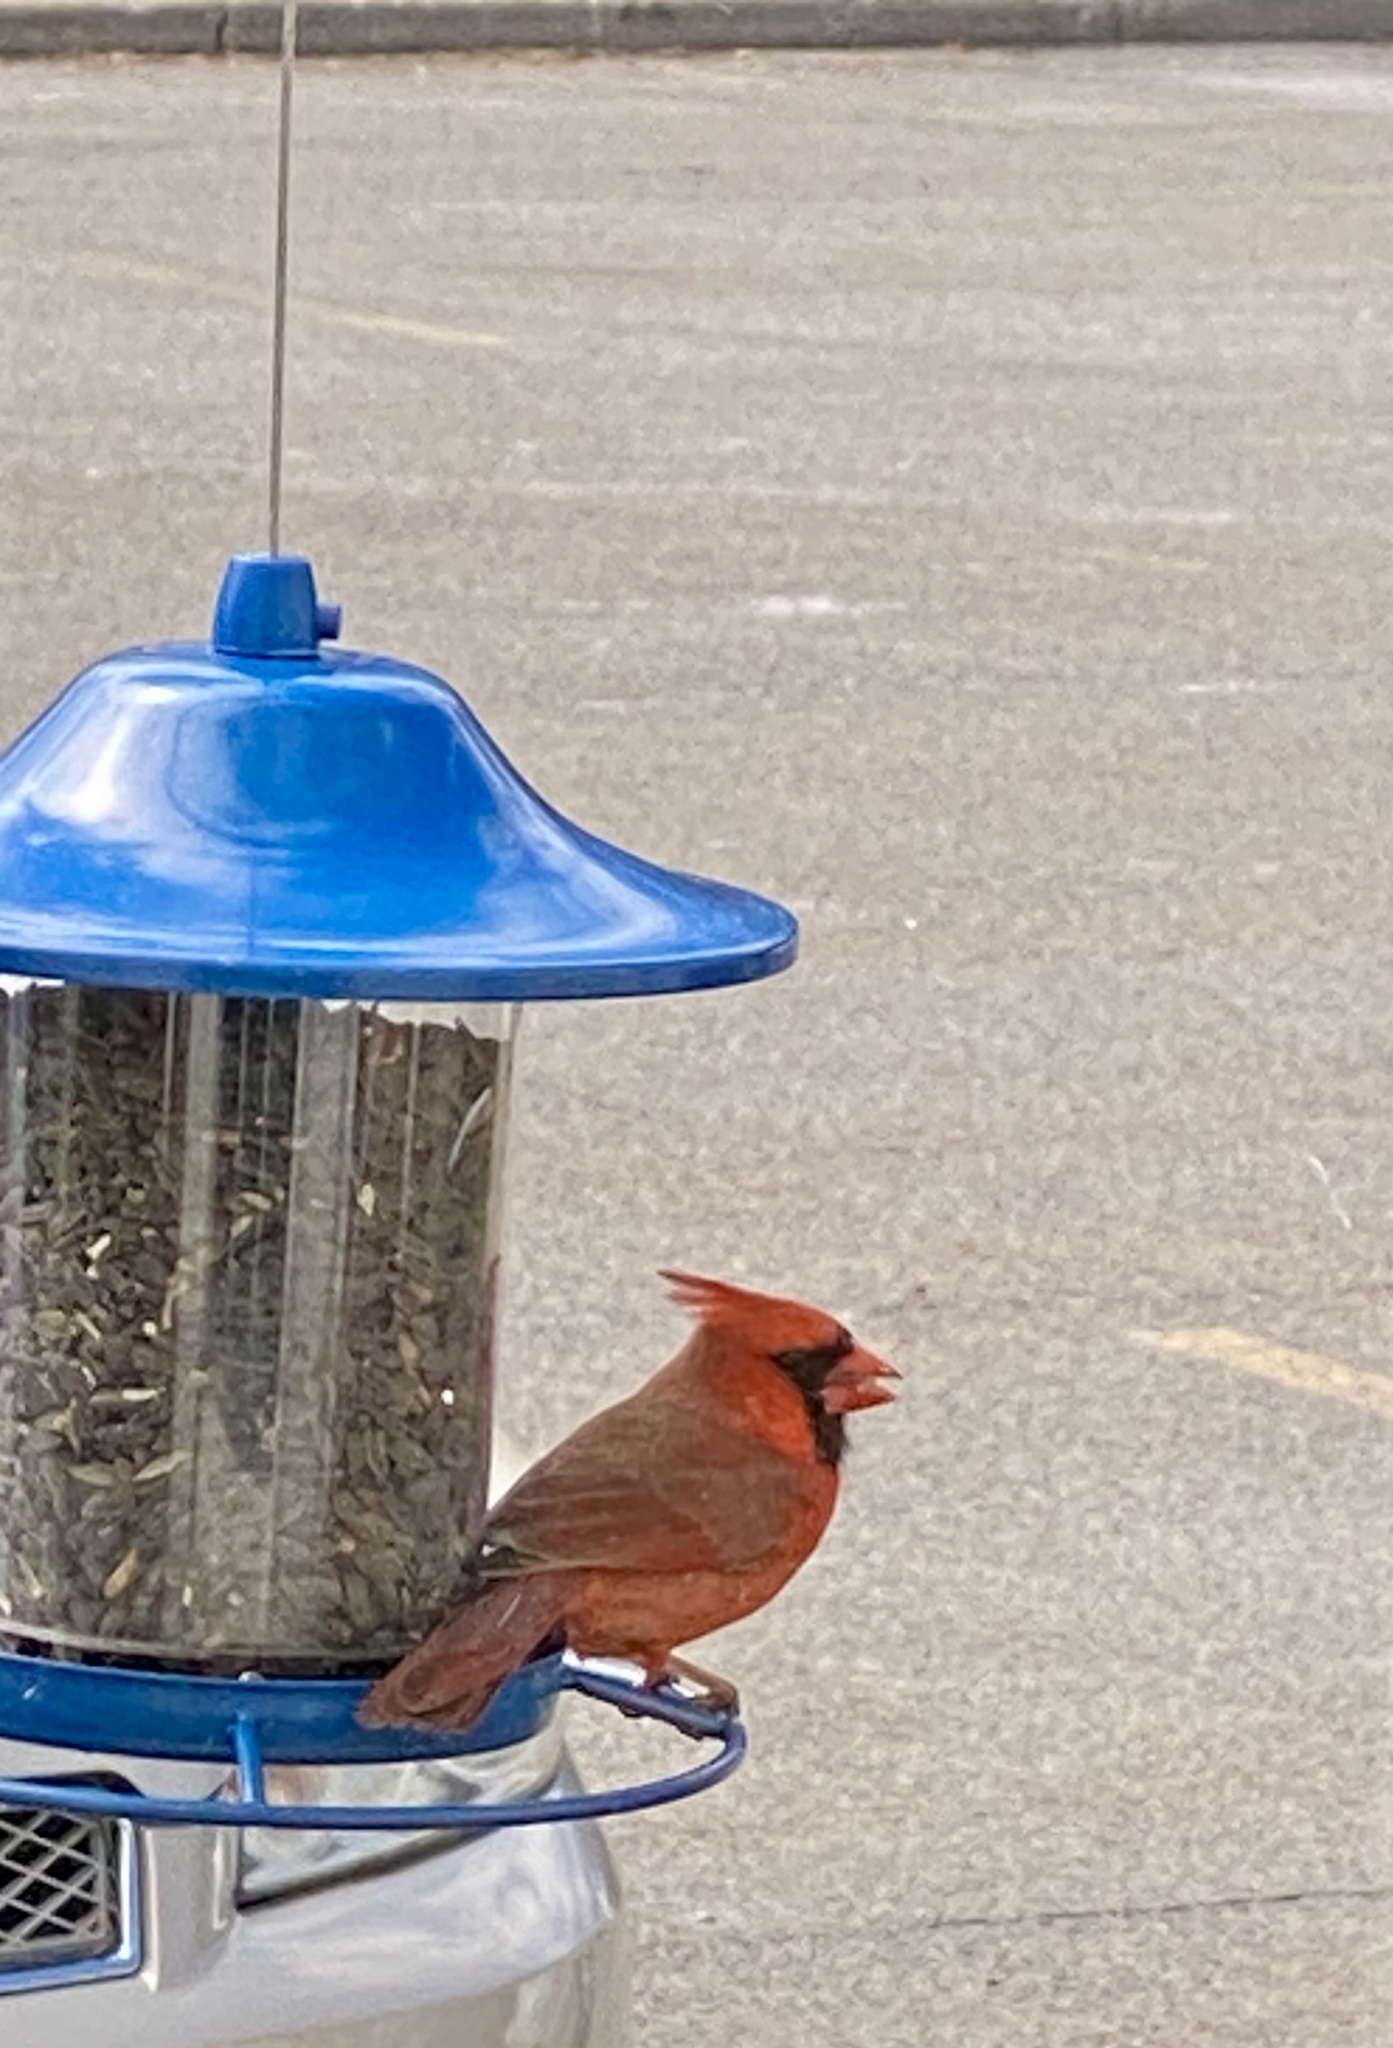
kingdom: Animalia
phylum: Chordata
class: Aves
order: Passeriformes
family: Cardinalidae
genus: Cardinalis
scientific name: Cardinalis cardinalis
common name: Northern cardinal
